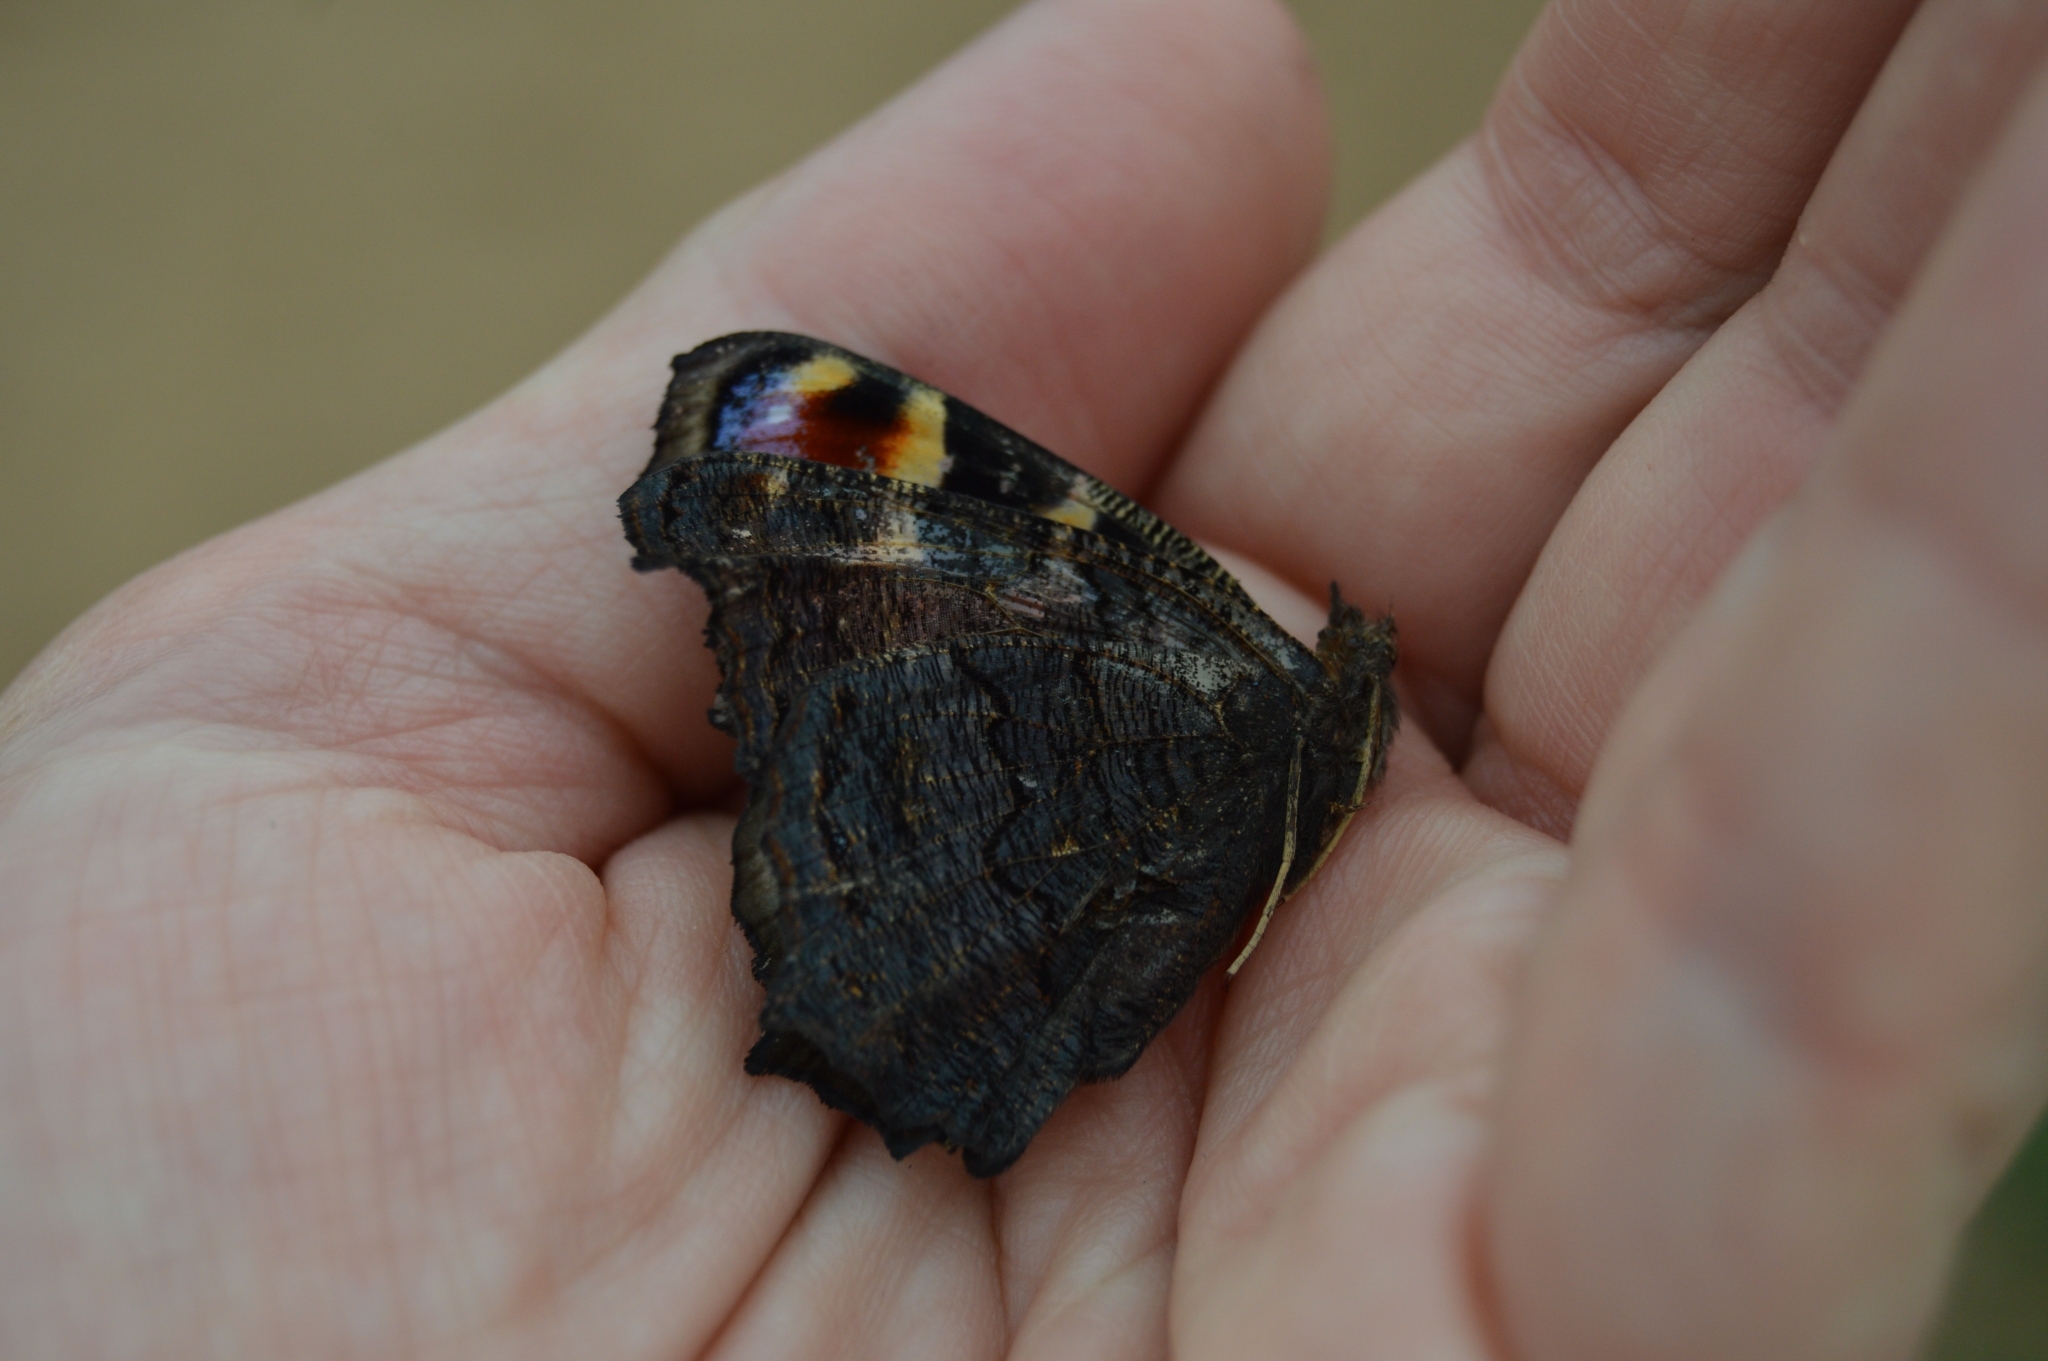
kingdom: Animalia
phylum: Arthropoda
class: Insecta
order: Lepidoptera
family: Nymphalidae
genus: Aglais
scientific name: Aglais io
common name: Peacock
